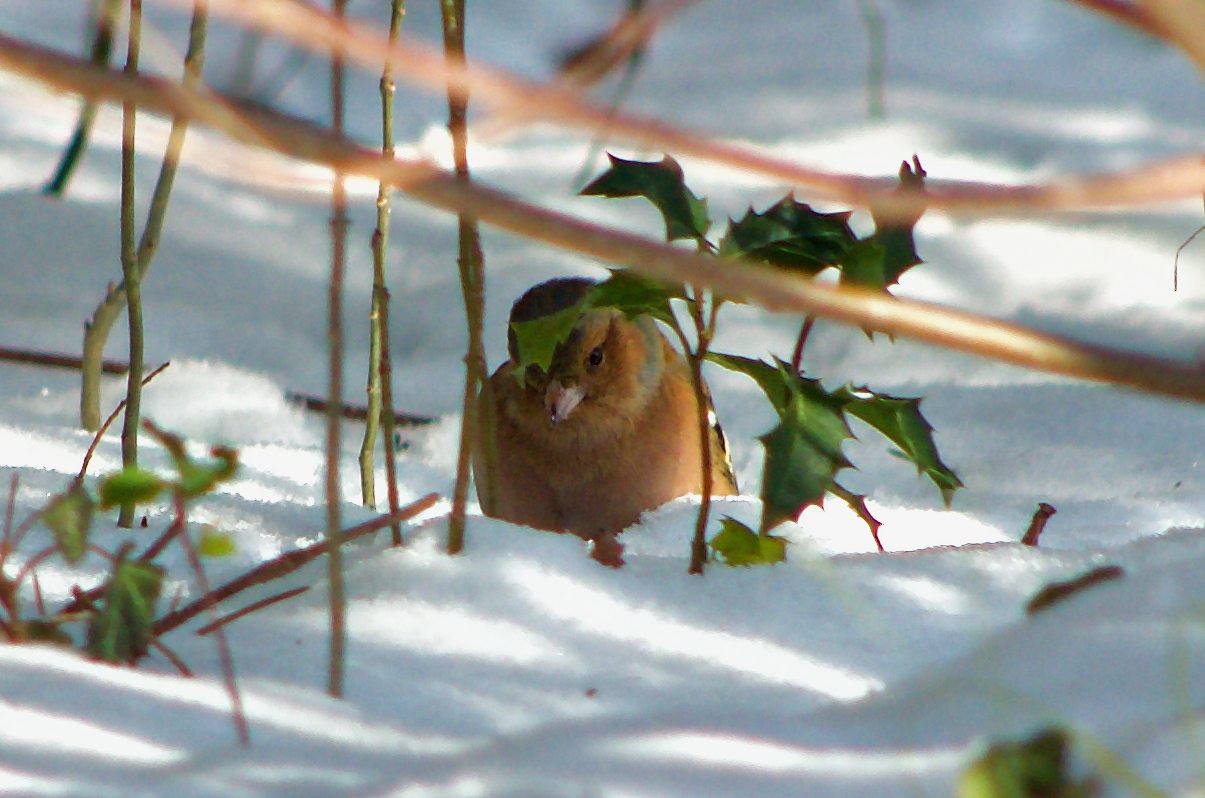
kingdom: Animalia
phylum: Chordata
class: Aves
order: Passeriformes
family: Fringillidae
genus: Fringilla
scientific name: Fringilla coelebs
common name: Common chaffinch
